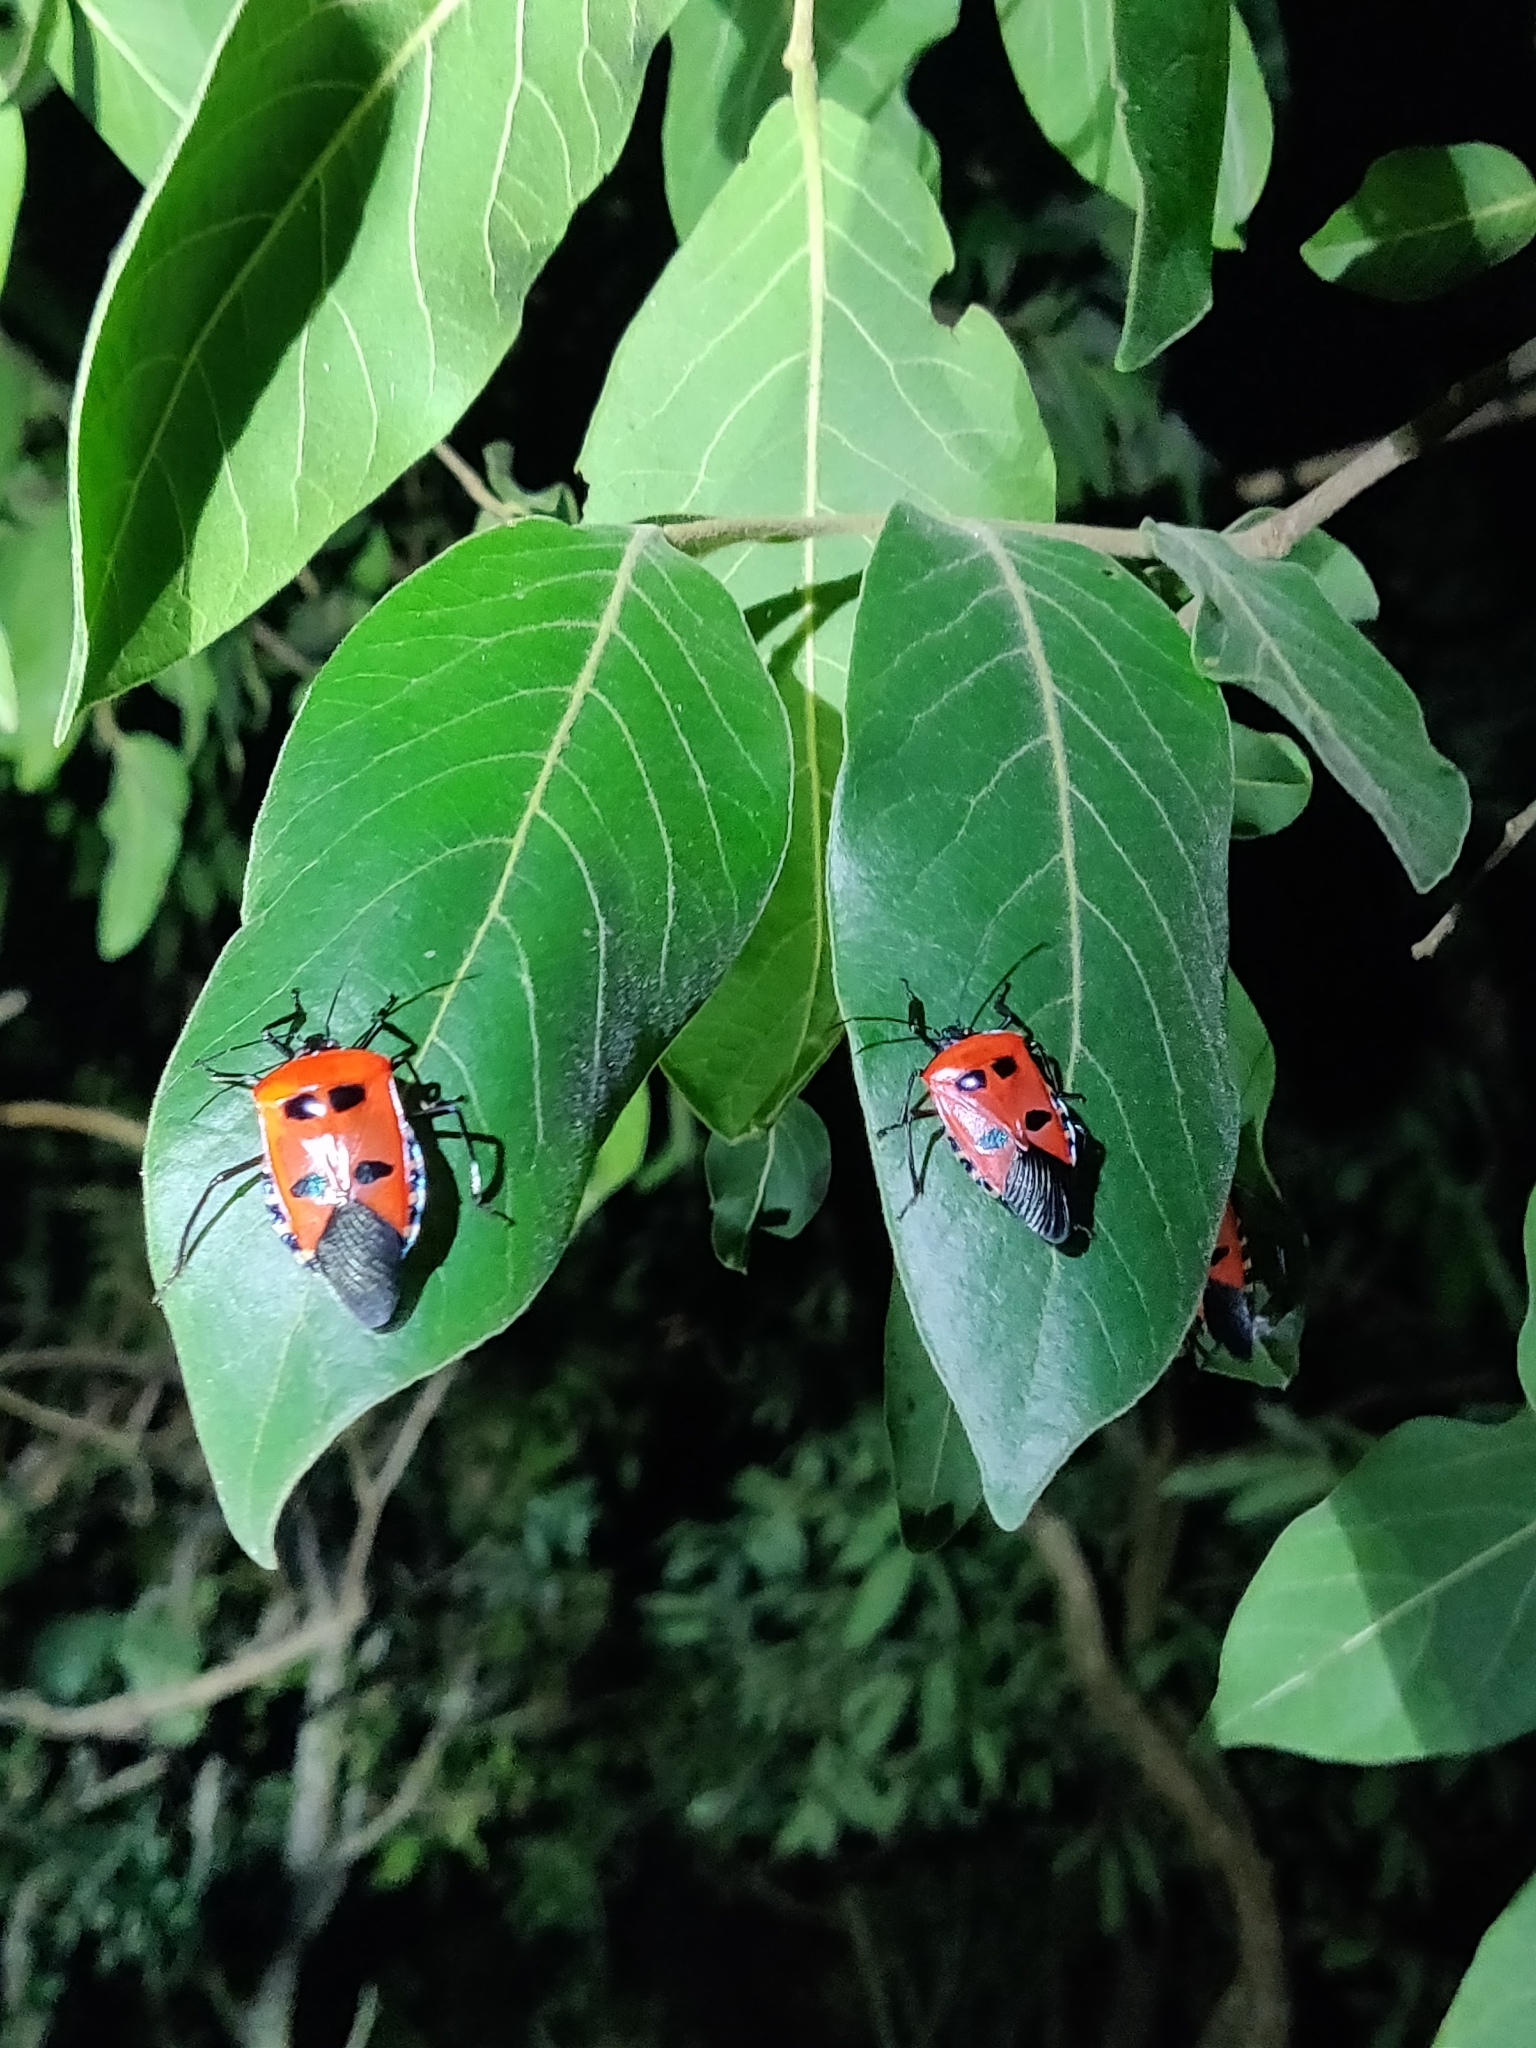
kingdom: Animalia
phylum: Arthropoda
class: Insecta
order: Hemiptera
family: Pentatomidae
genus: Catacanthus
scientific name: Catacanthus incarnatus
